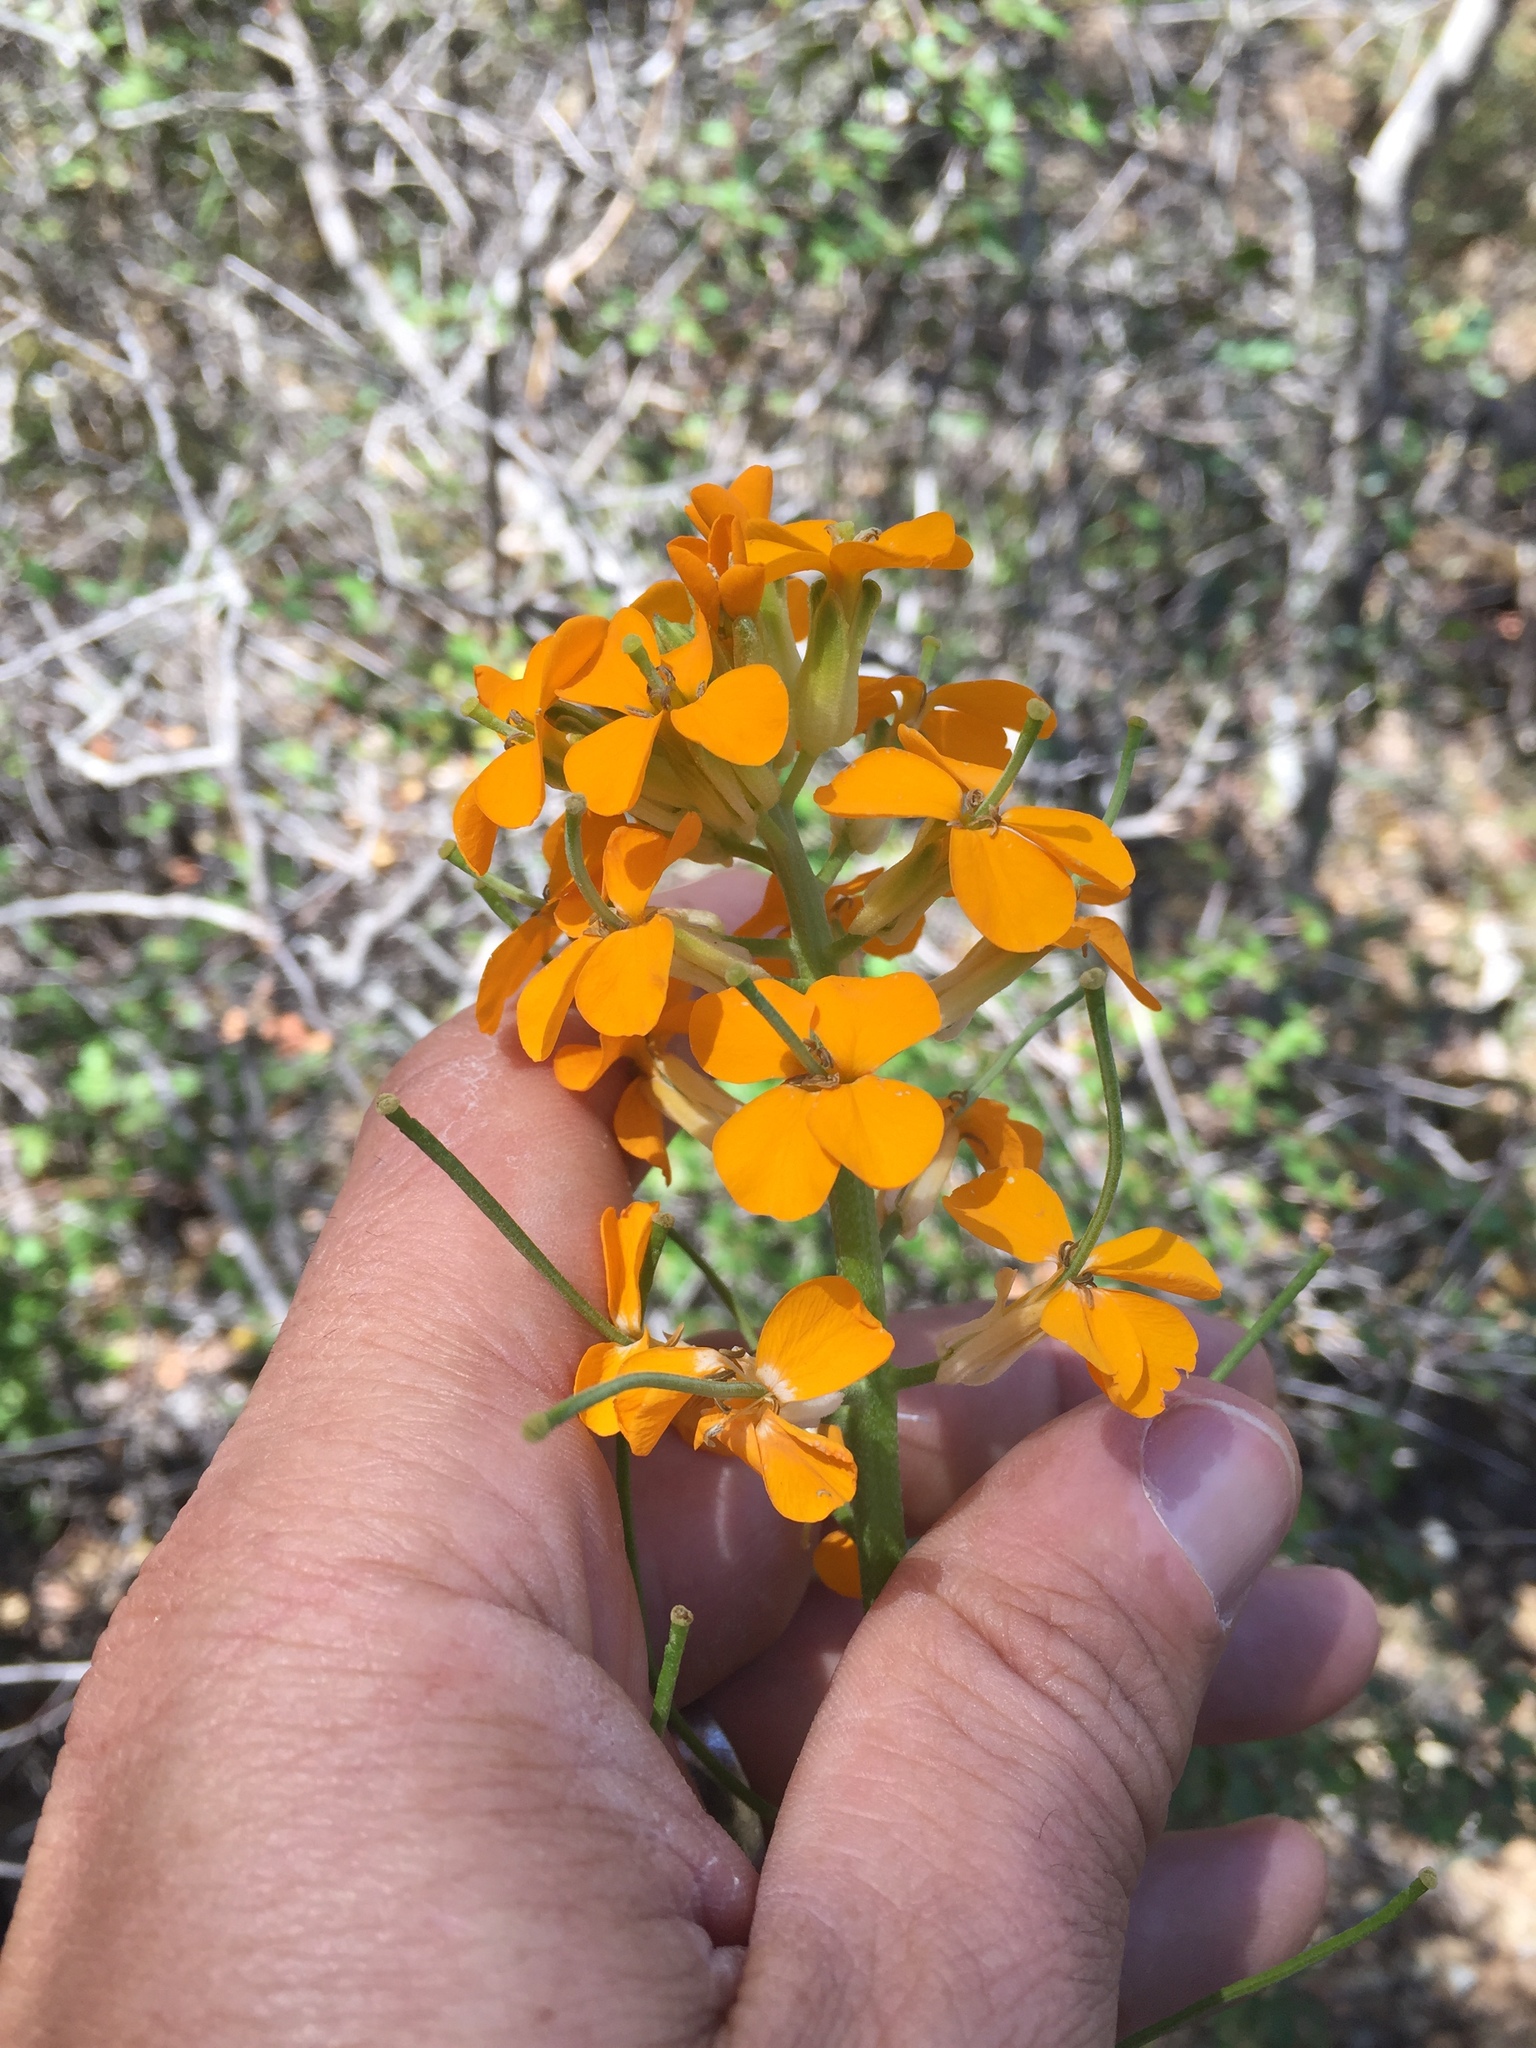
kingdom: Plantae
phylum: Tracheophyta
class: Magnoliopsida
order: Brassicales
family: Brassicaceae
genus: Erysimum
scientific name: Erysimum capitatum
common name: Western wallflower
